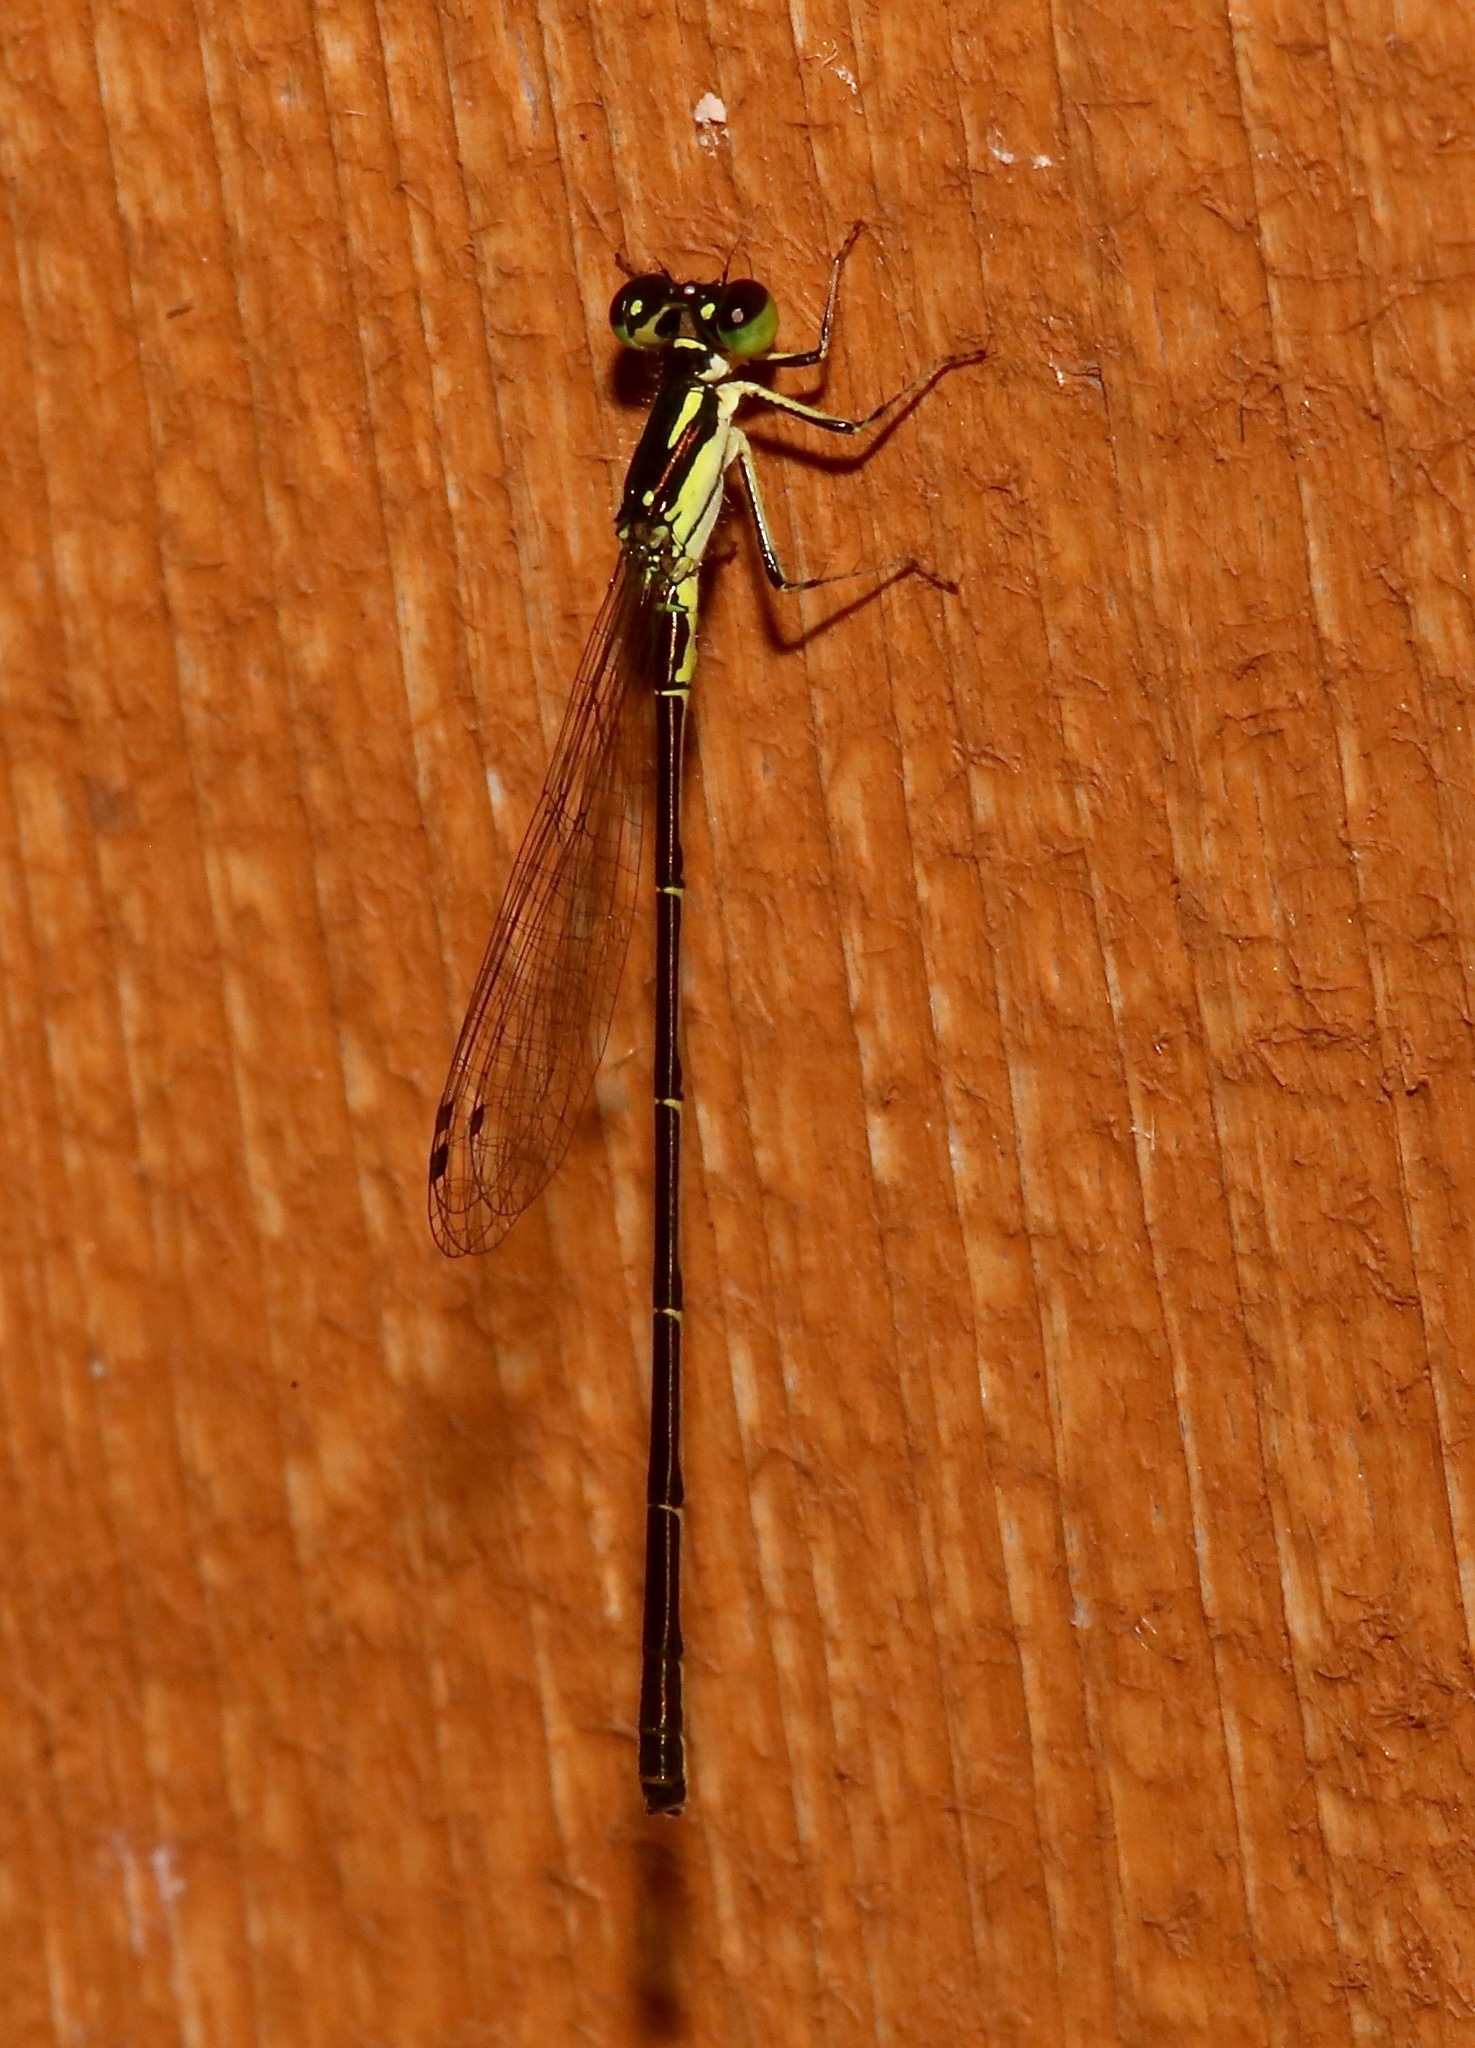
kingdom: Animalia
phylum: Arthropoda
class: Insecta
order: Odonata
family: Coenagrionidae
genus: Ischnura
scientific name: Ischnura posita
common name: Fragile forktail
